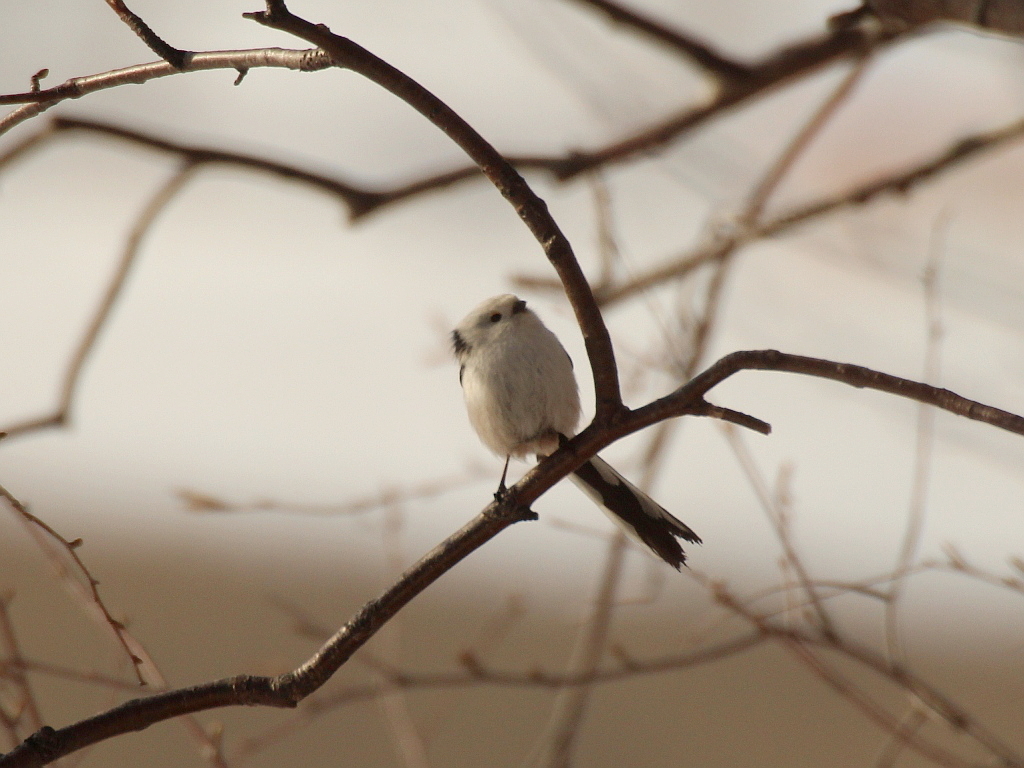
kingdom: Animalia
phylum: Chordata
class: Aves
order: Passeriformes
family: Aegithalidae
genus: Aegithalos
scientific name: Aegithalos caudatus
